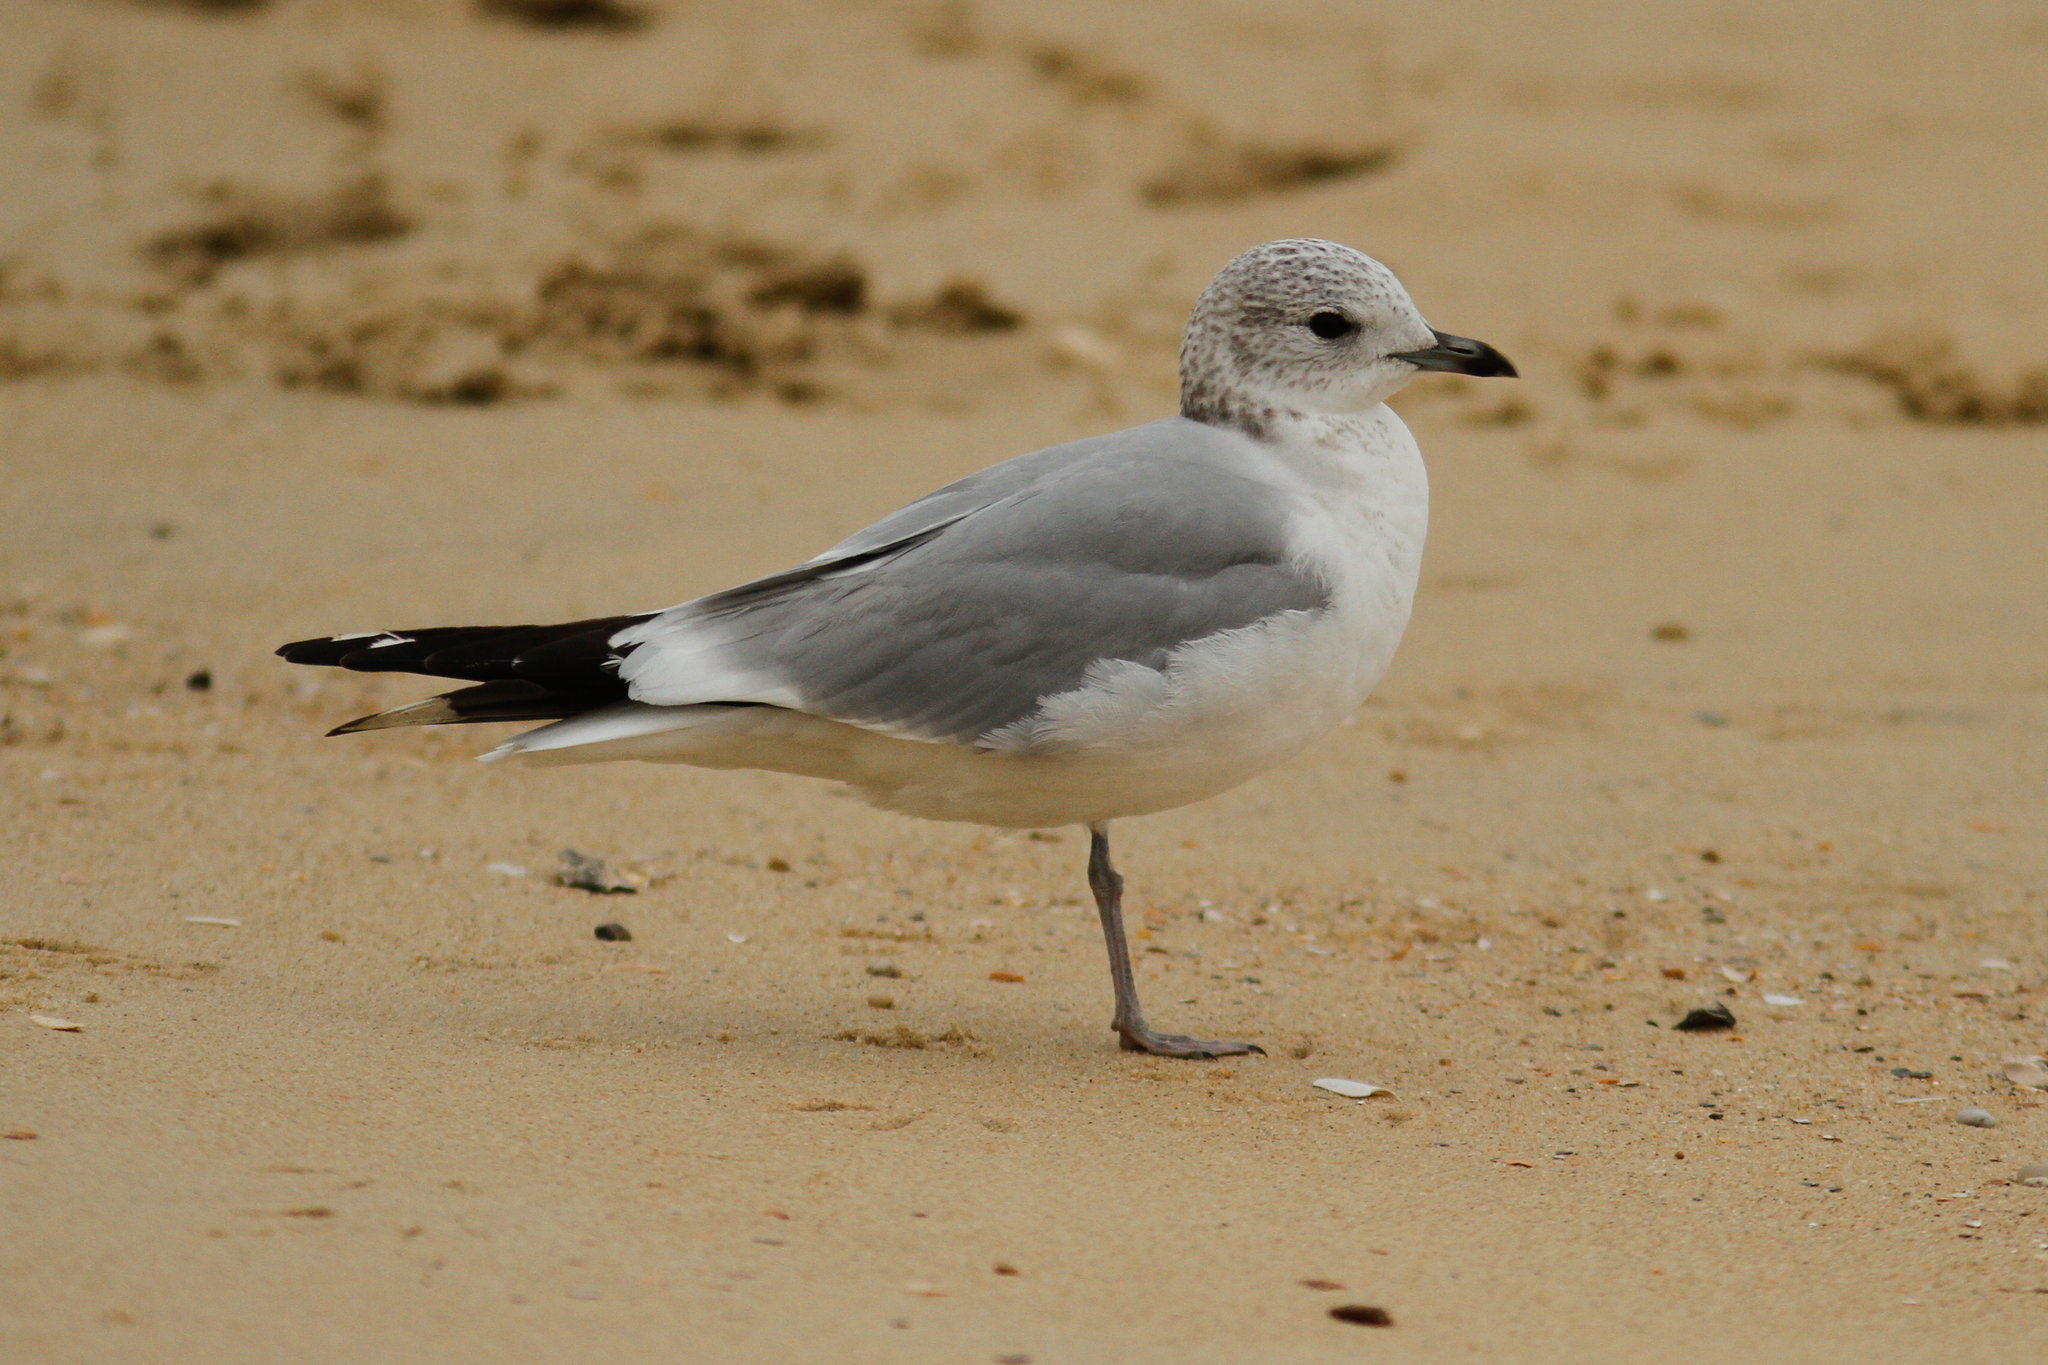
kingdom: Animalia
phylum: Chordata
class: Aves
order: Charadriiformes
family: Laridae
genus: Larus
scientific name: Larus canus
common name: Mew gull
